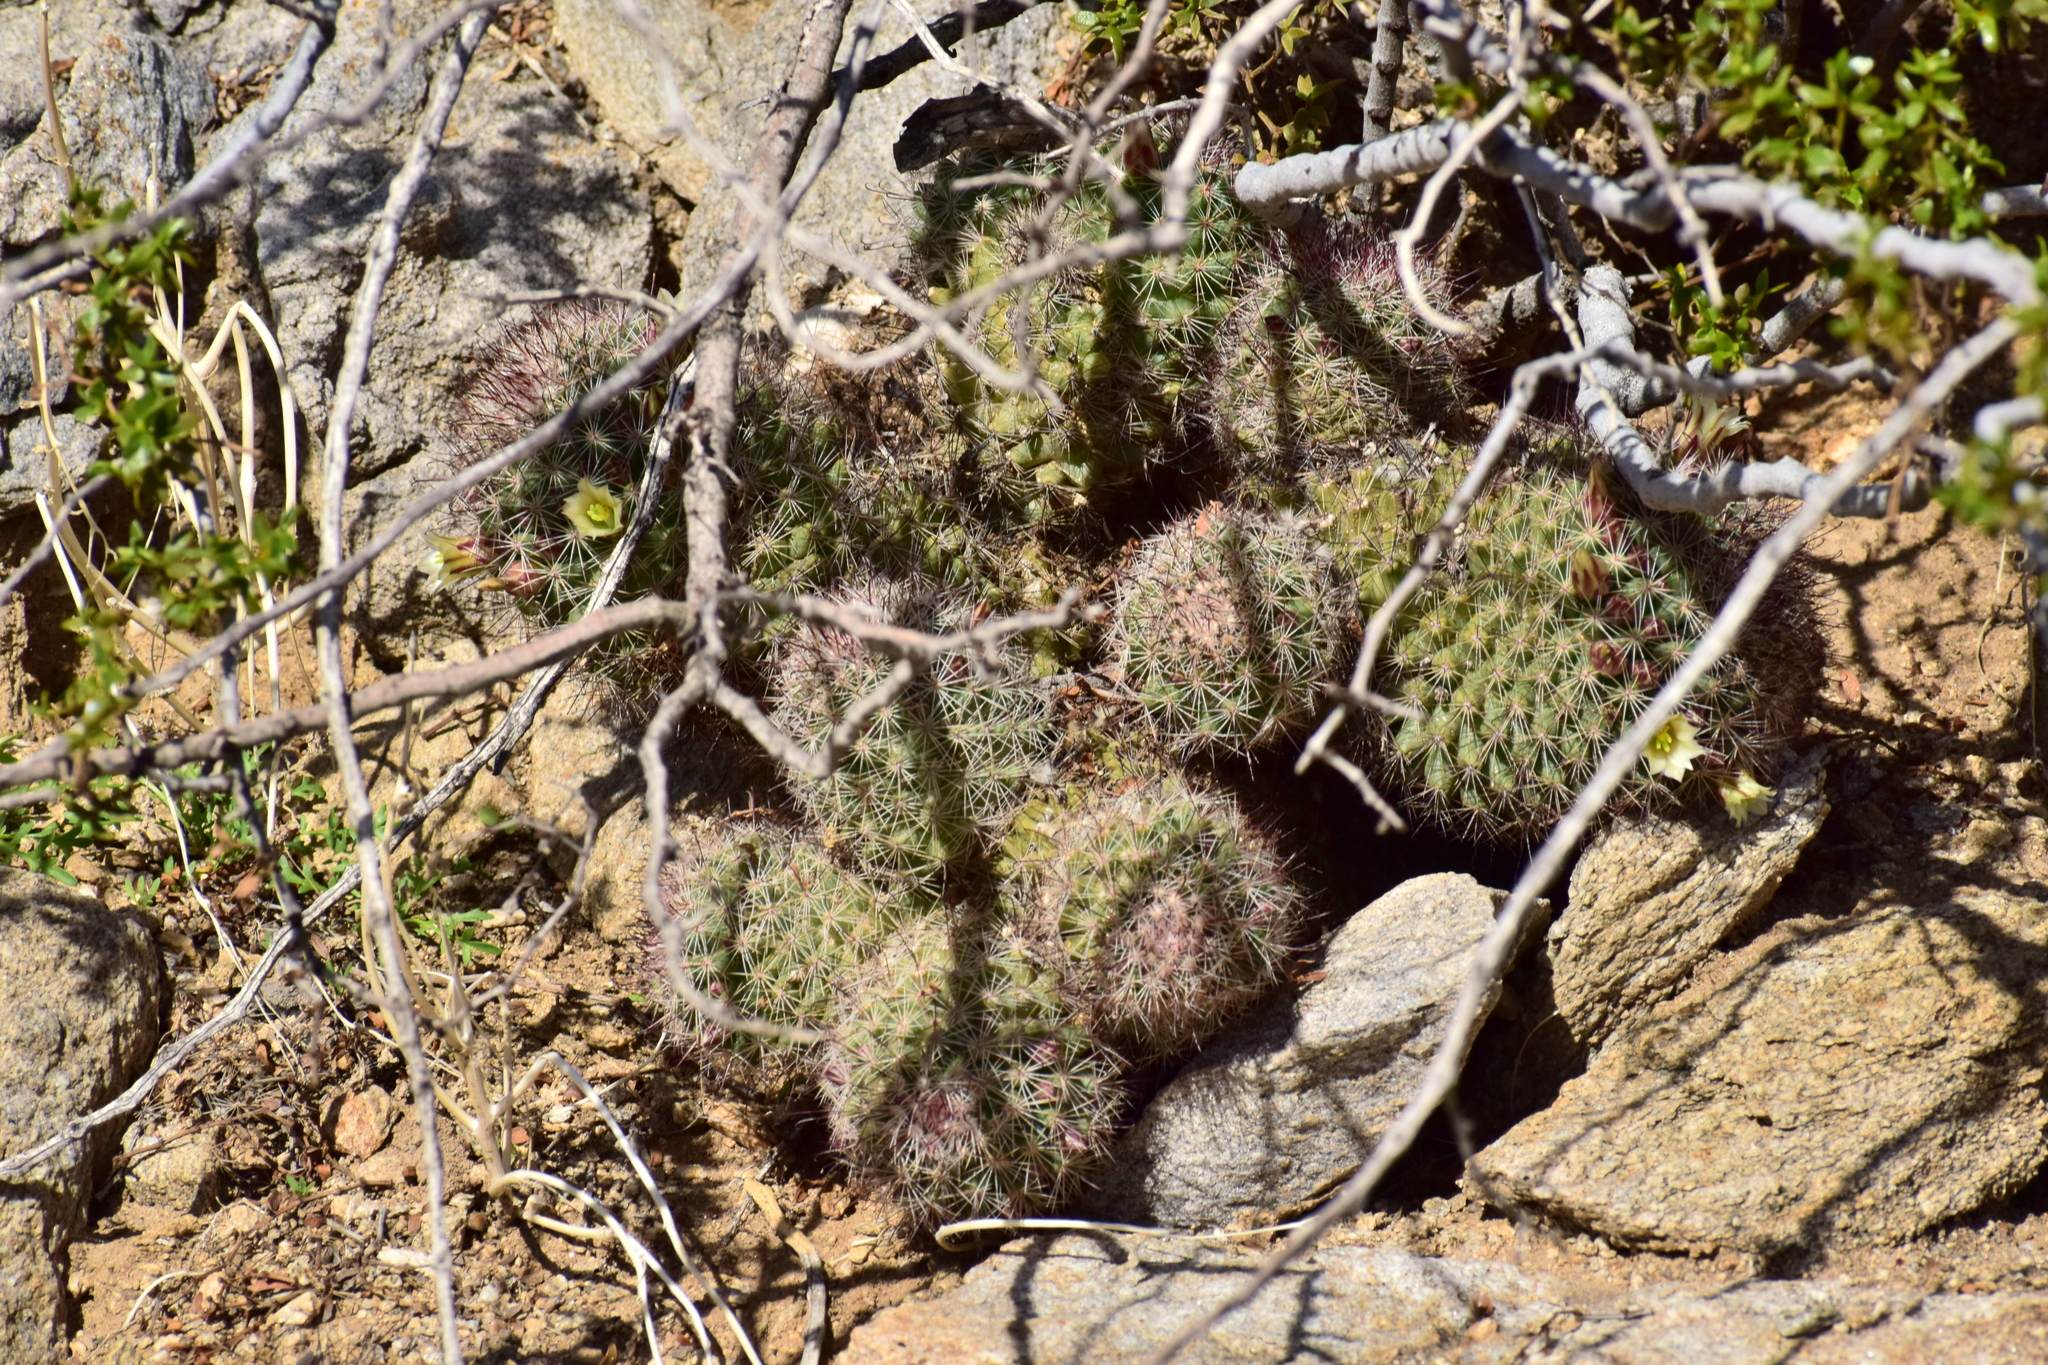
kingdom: Plantae
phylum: Tracheophyta
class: Magnoliopsida
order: Caryophyllales
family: Cactaceae
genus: Cochemiea
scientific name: Cochemiea dioica
